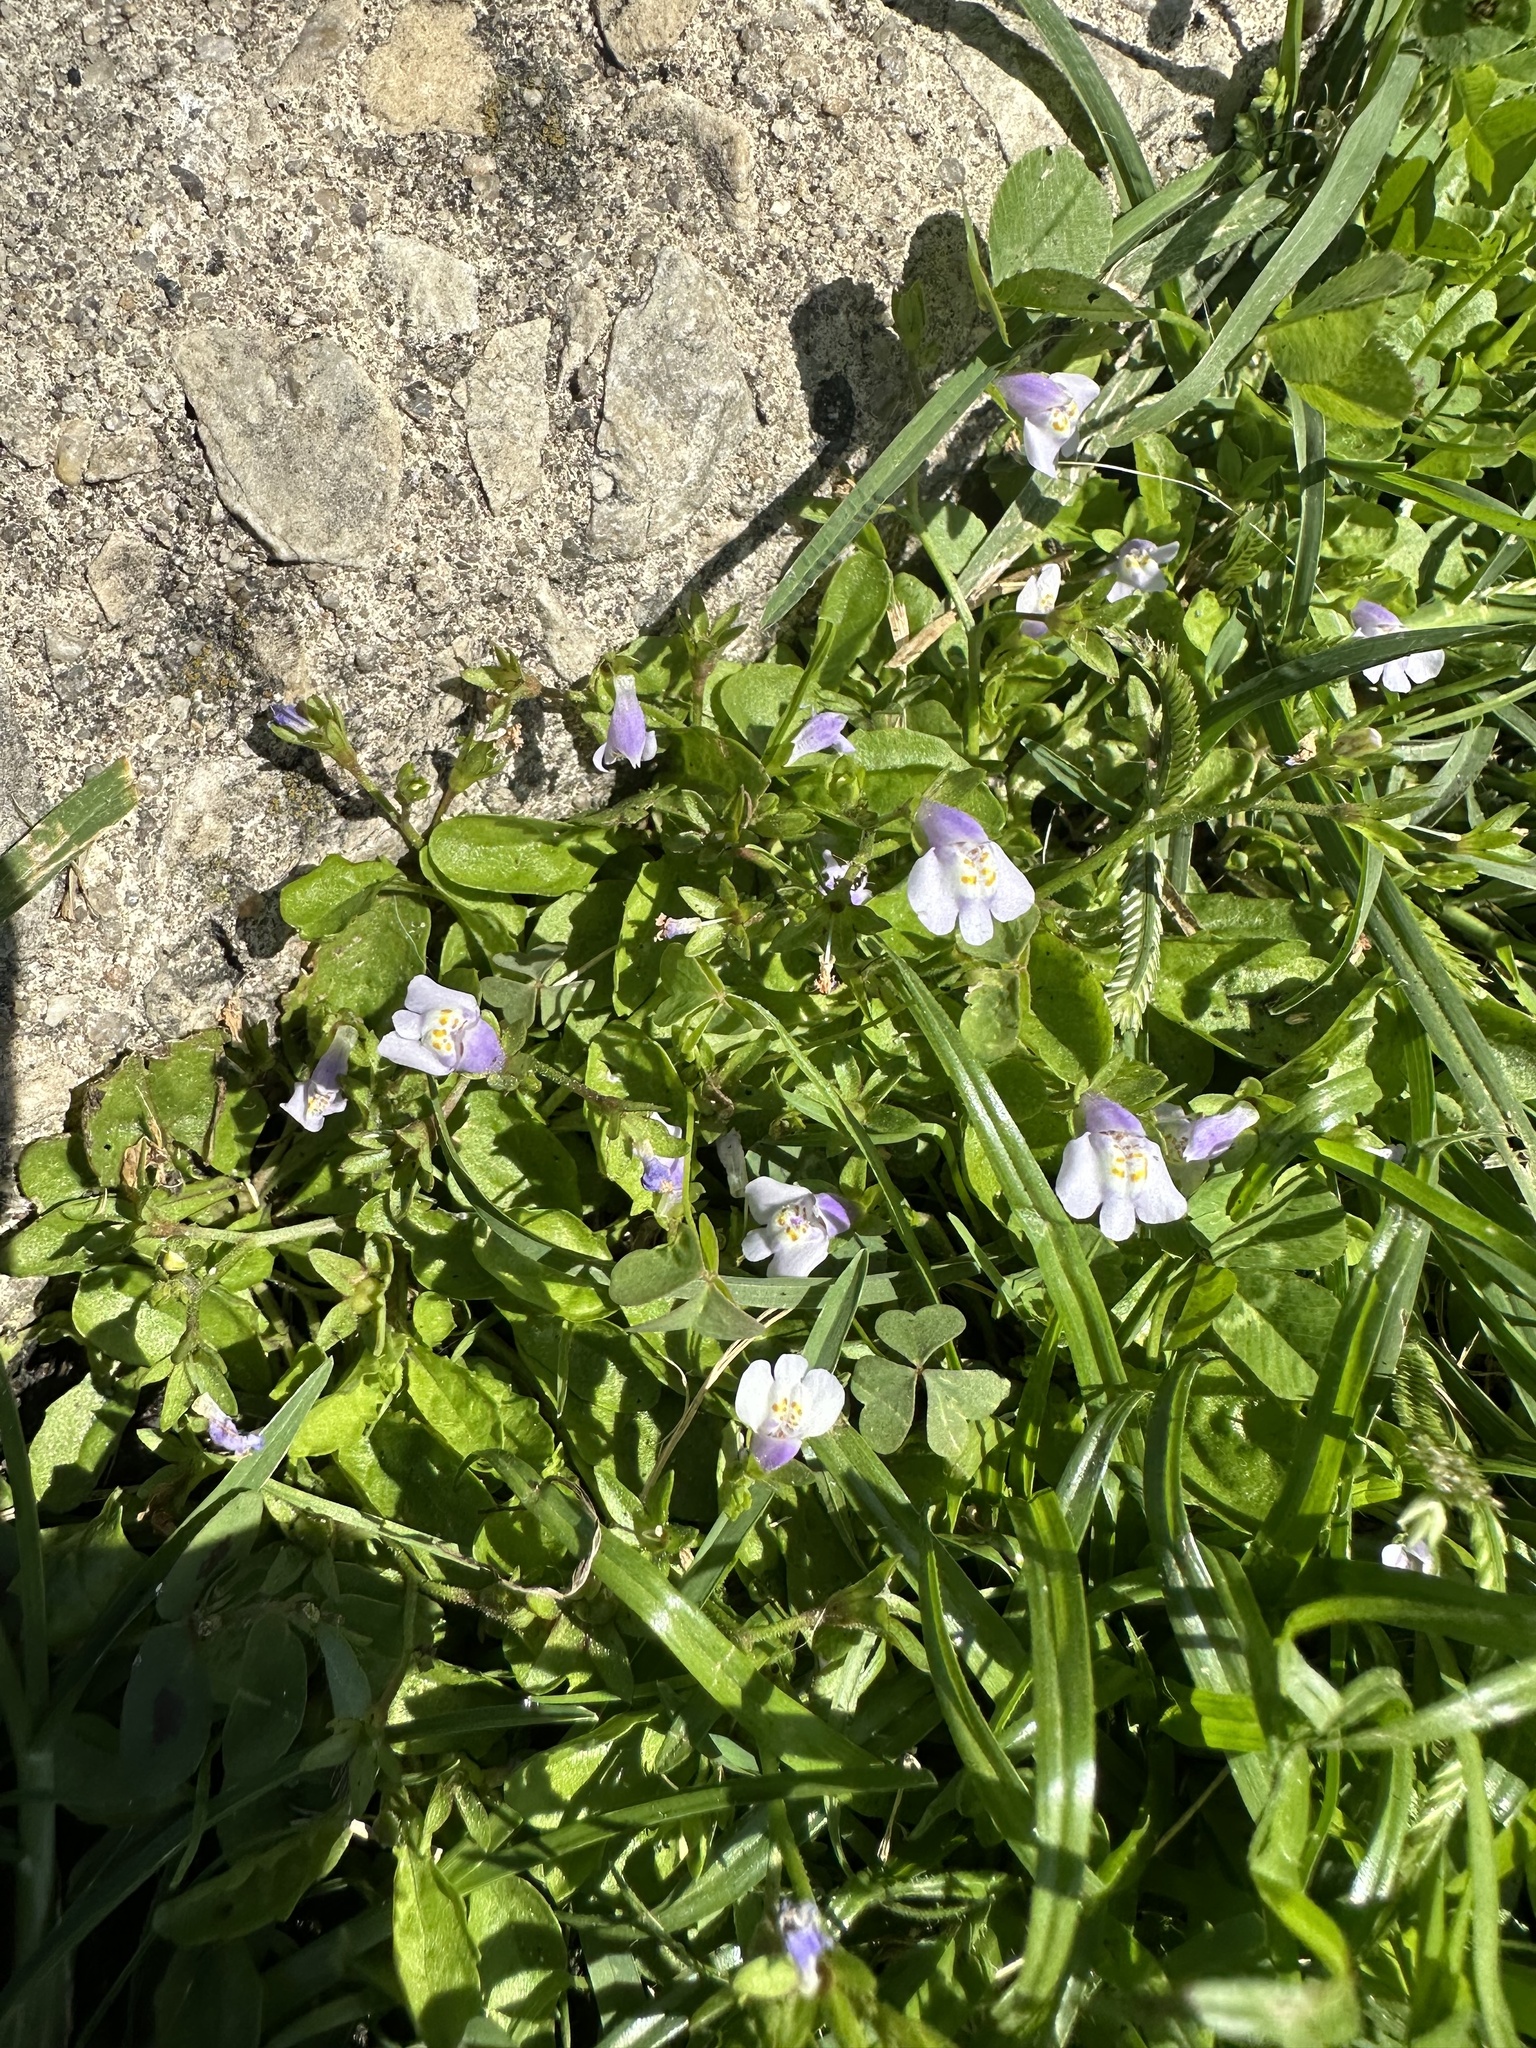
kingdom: Plantae
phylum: Tracheophyta
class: Magnoliopsida
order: Lamiales
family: Mazaceae
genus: Mazus
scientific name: Mazus pumilus
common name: Japanese mazus
